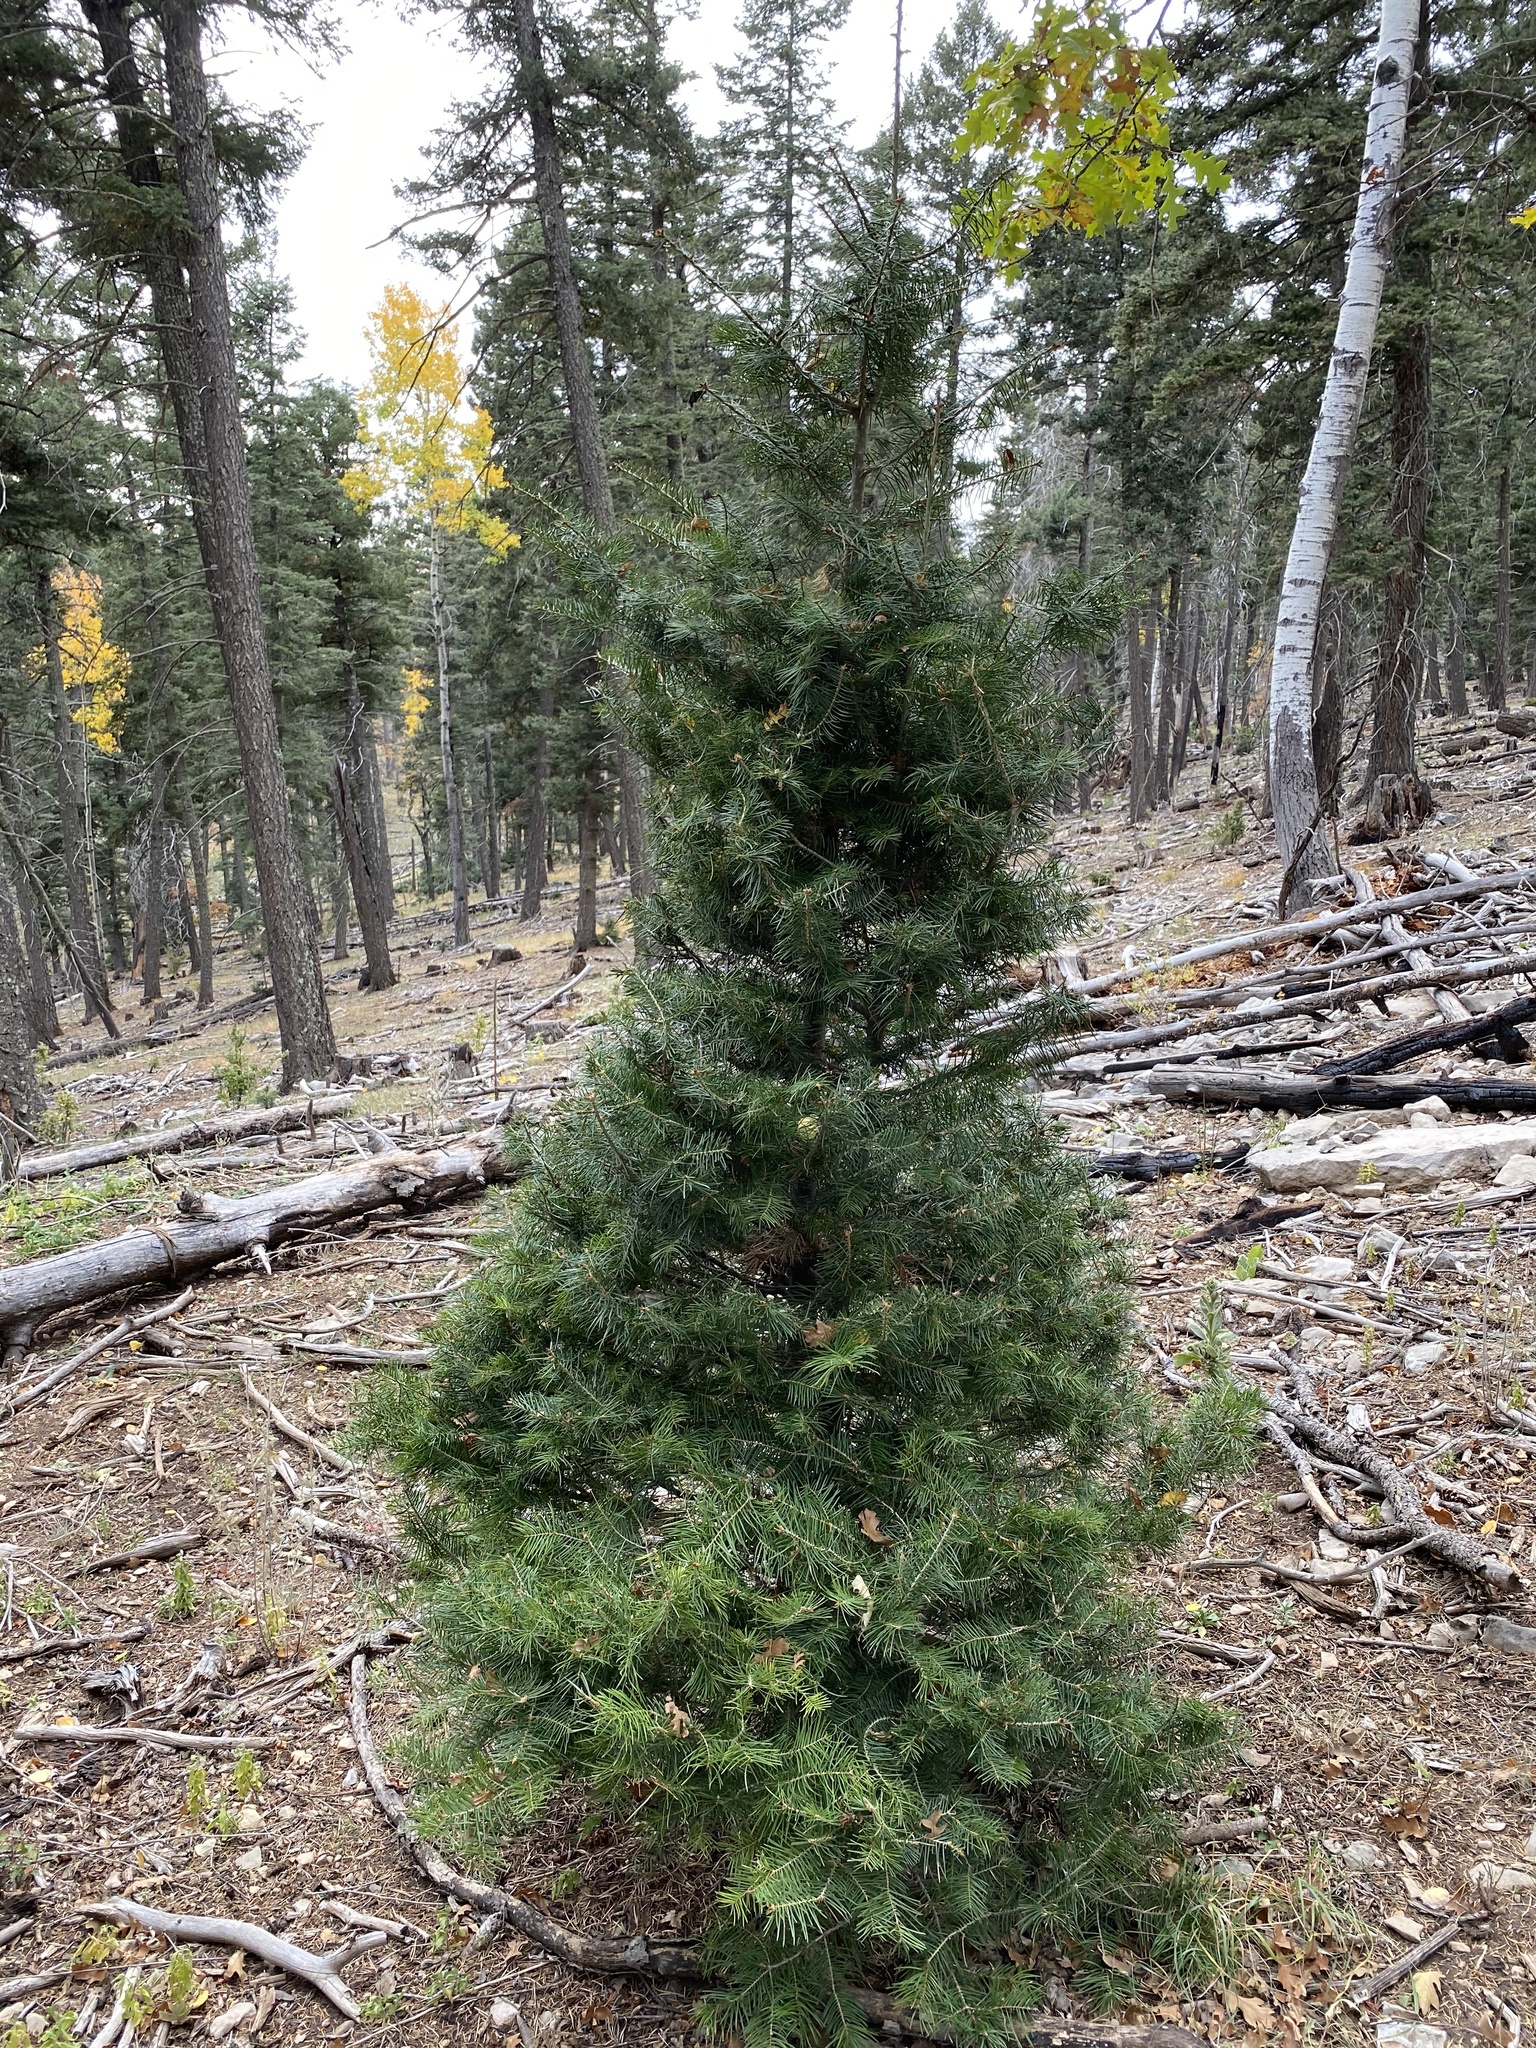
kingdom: Plantae
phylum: Tracheophyta
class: Pinopsida
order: Pinales
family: Pinaceae
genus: Abies
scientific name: Abies concolor
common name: Colorado fir
